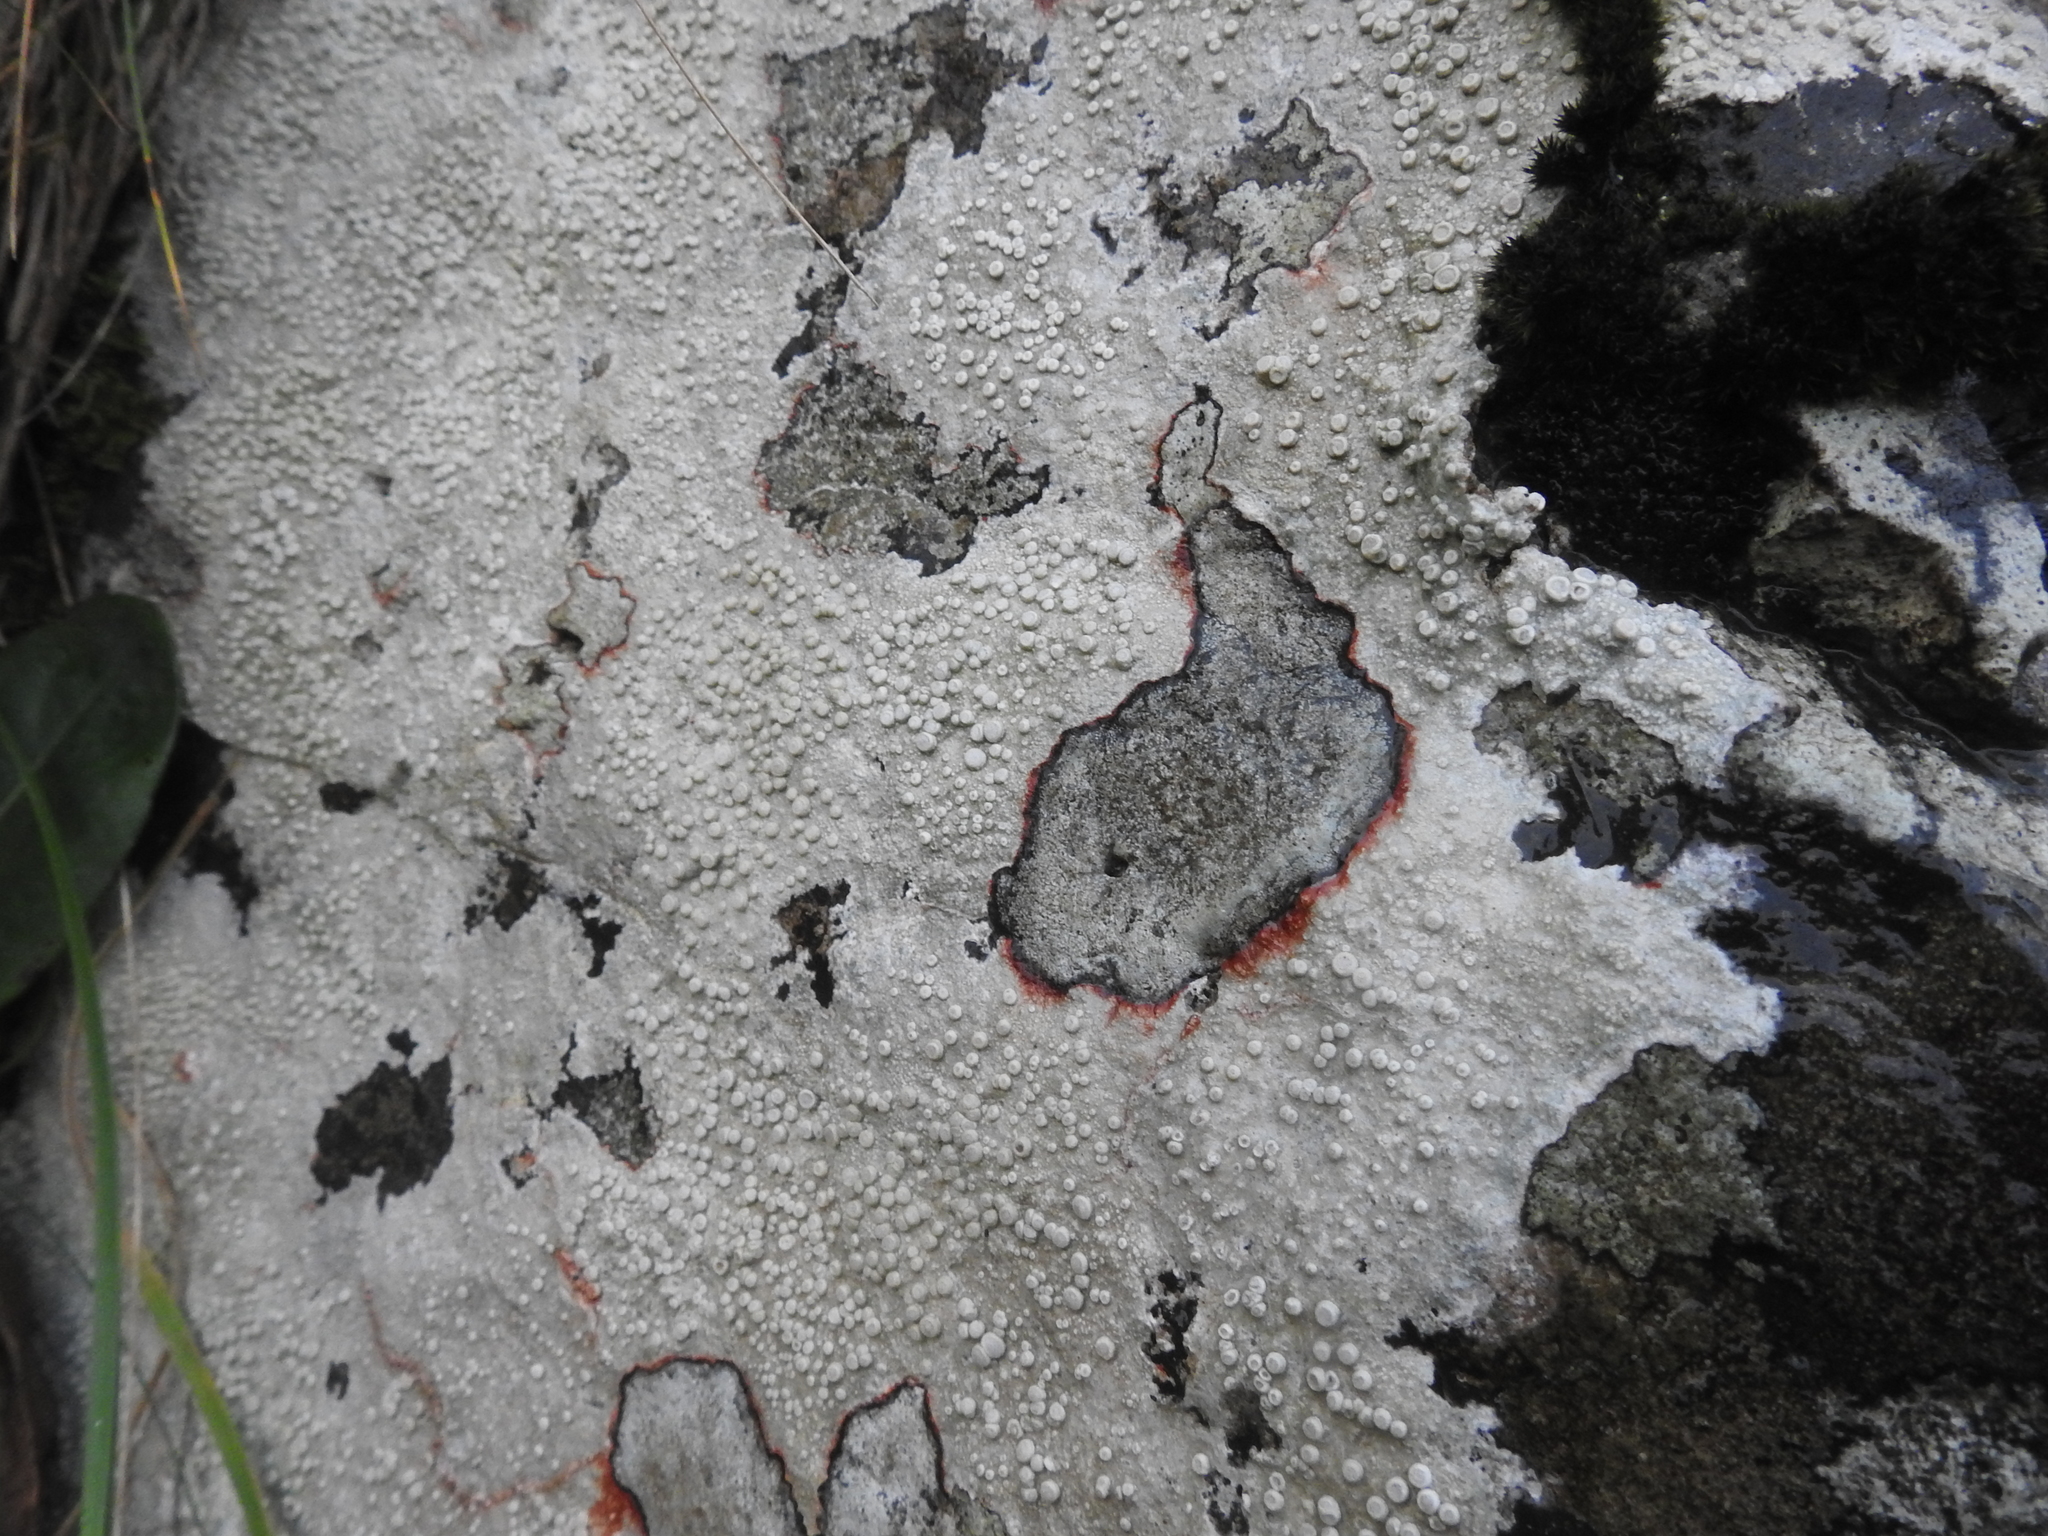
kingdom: Fungi
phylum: Ascomycota
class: Lecanoromycetes
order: Pertusariales
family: Ochrolechiaceae
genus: Ochrolechia
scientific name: Ochrolechia parella
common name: Crab's eye lichen
